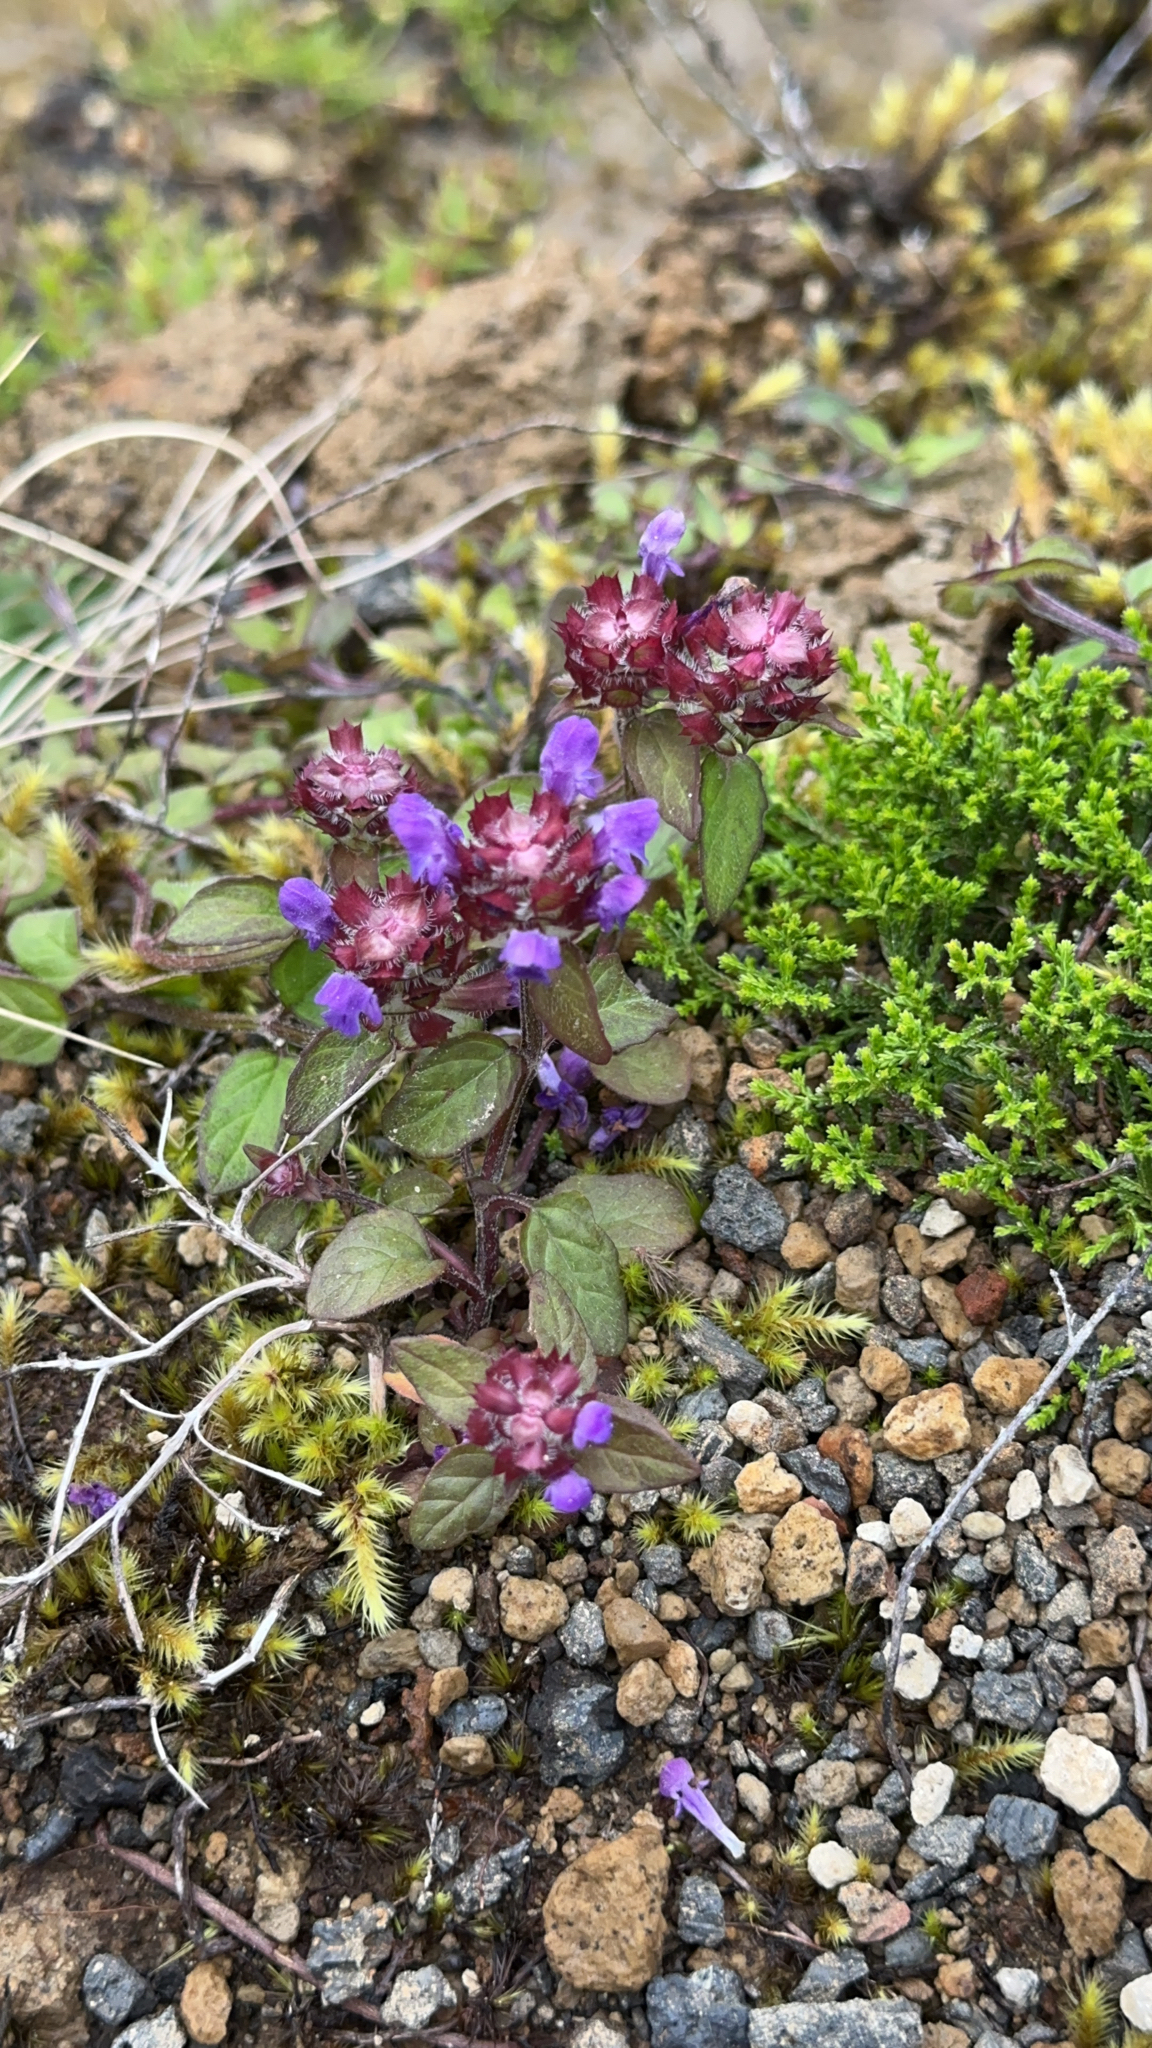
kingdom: Plantae
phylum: Tracheophyta
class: Magnoliopsida
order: Lamiales
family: Lamiaceae
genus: Prunella
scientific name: Prunella vulgaris
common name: Heal-all
